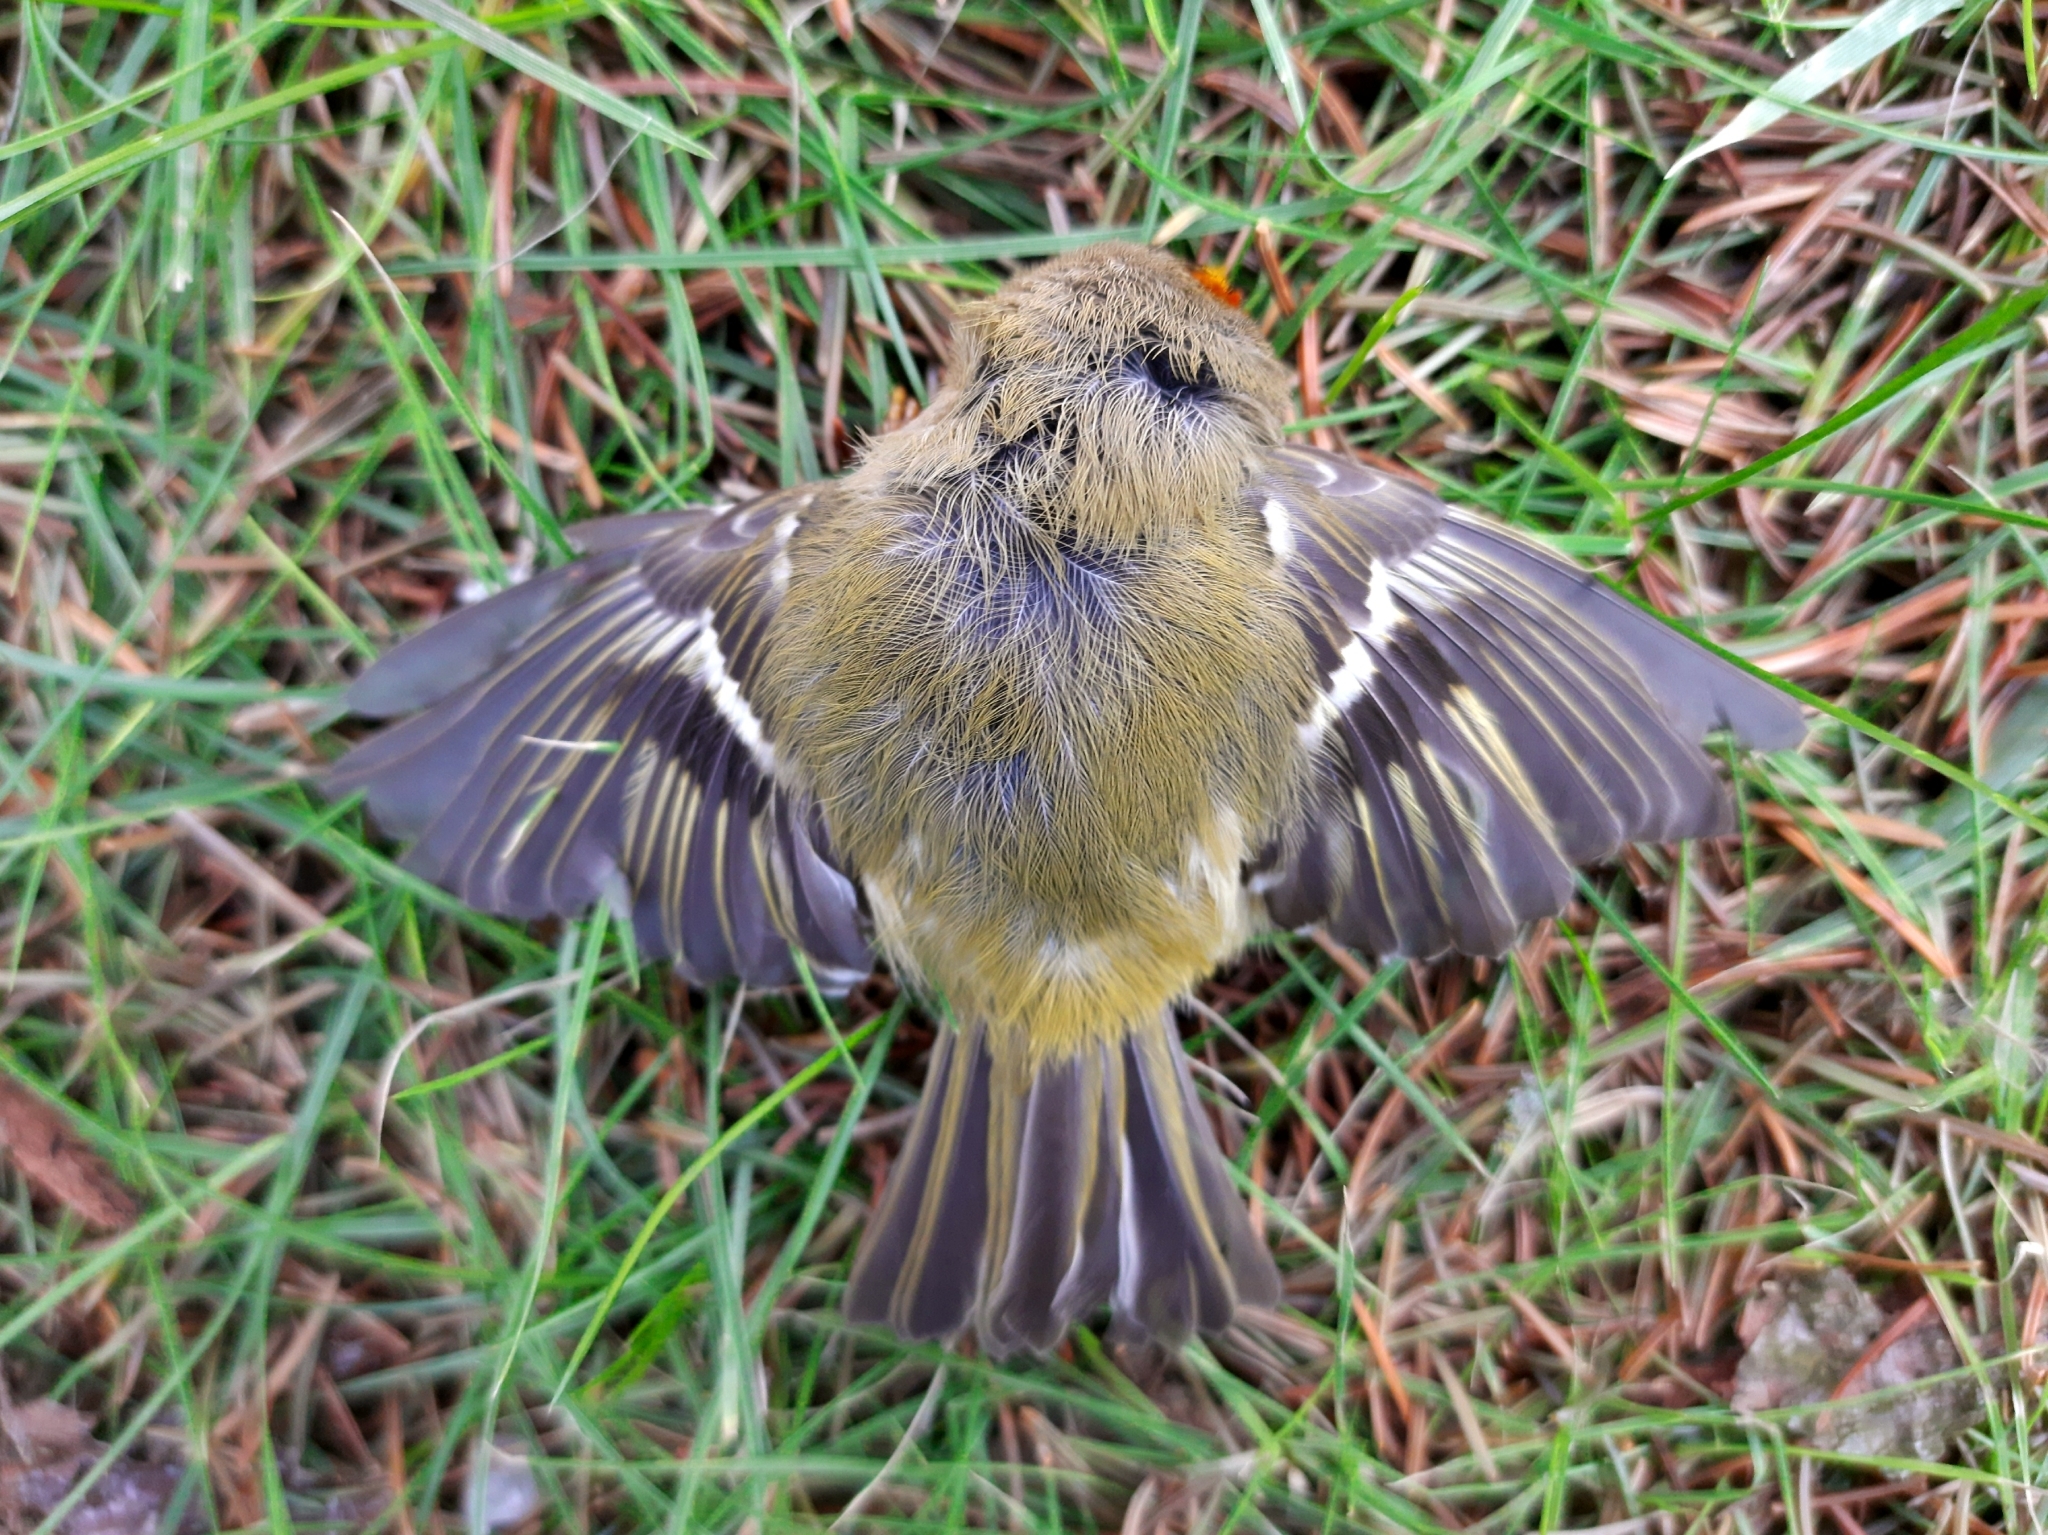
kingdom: Animalia
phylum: Chordata
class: Aves
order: Passeriformes
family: Regulidae
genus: Regulus
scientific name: Regulus regulus
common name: Goldcrest
